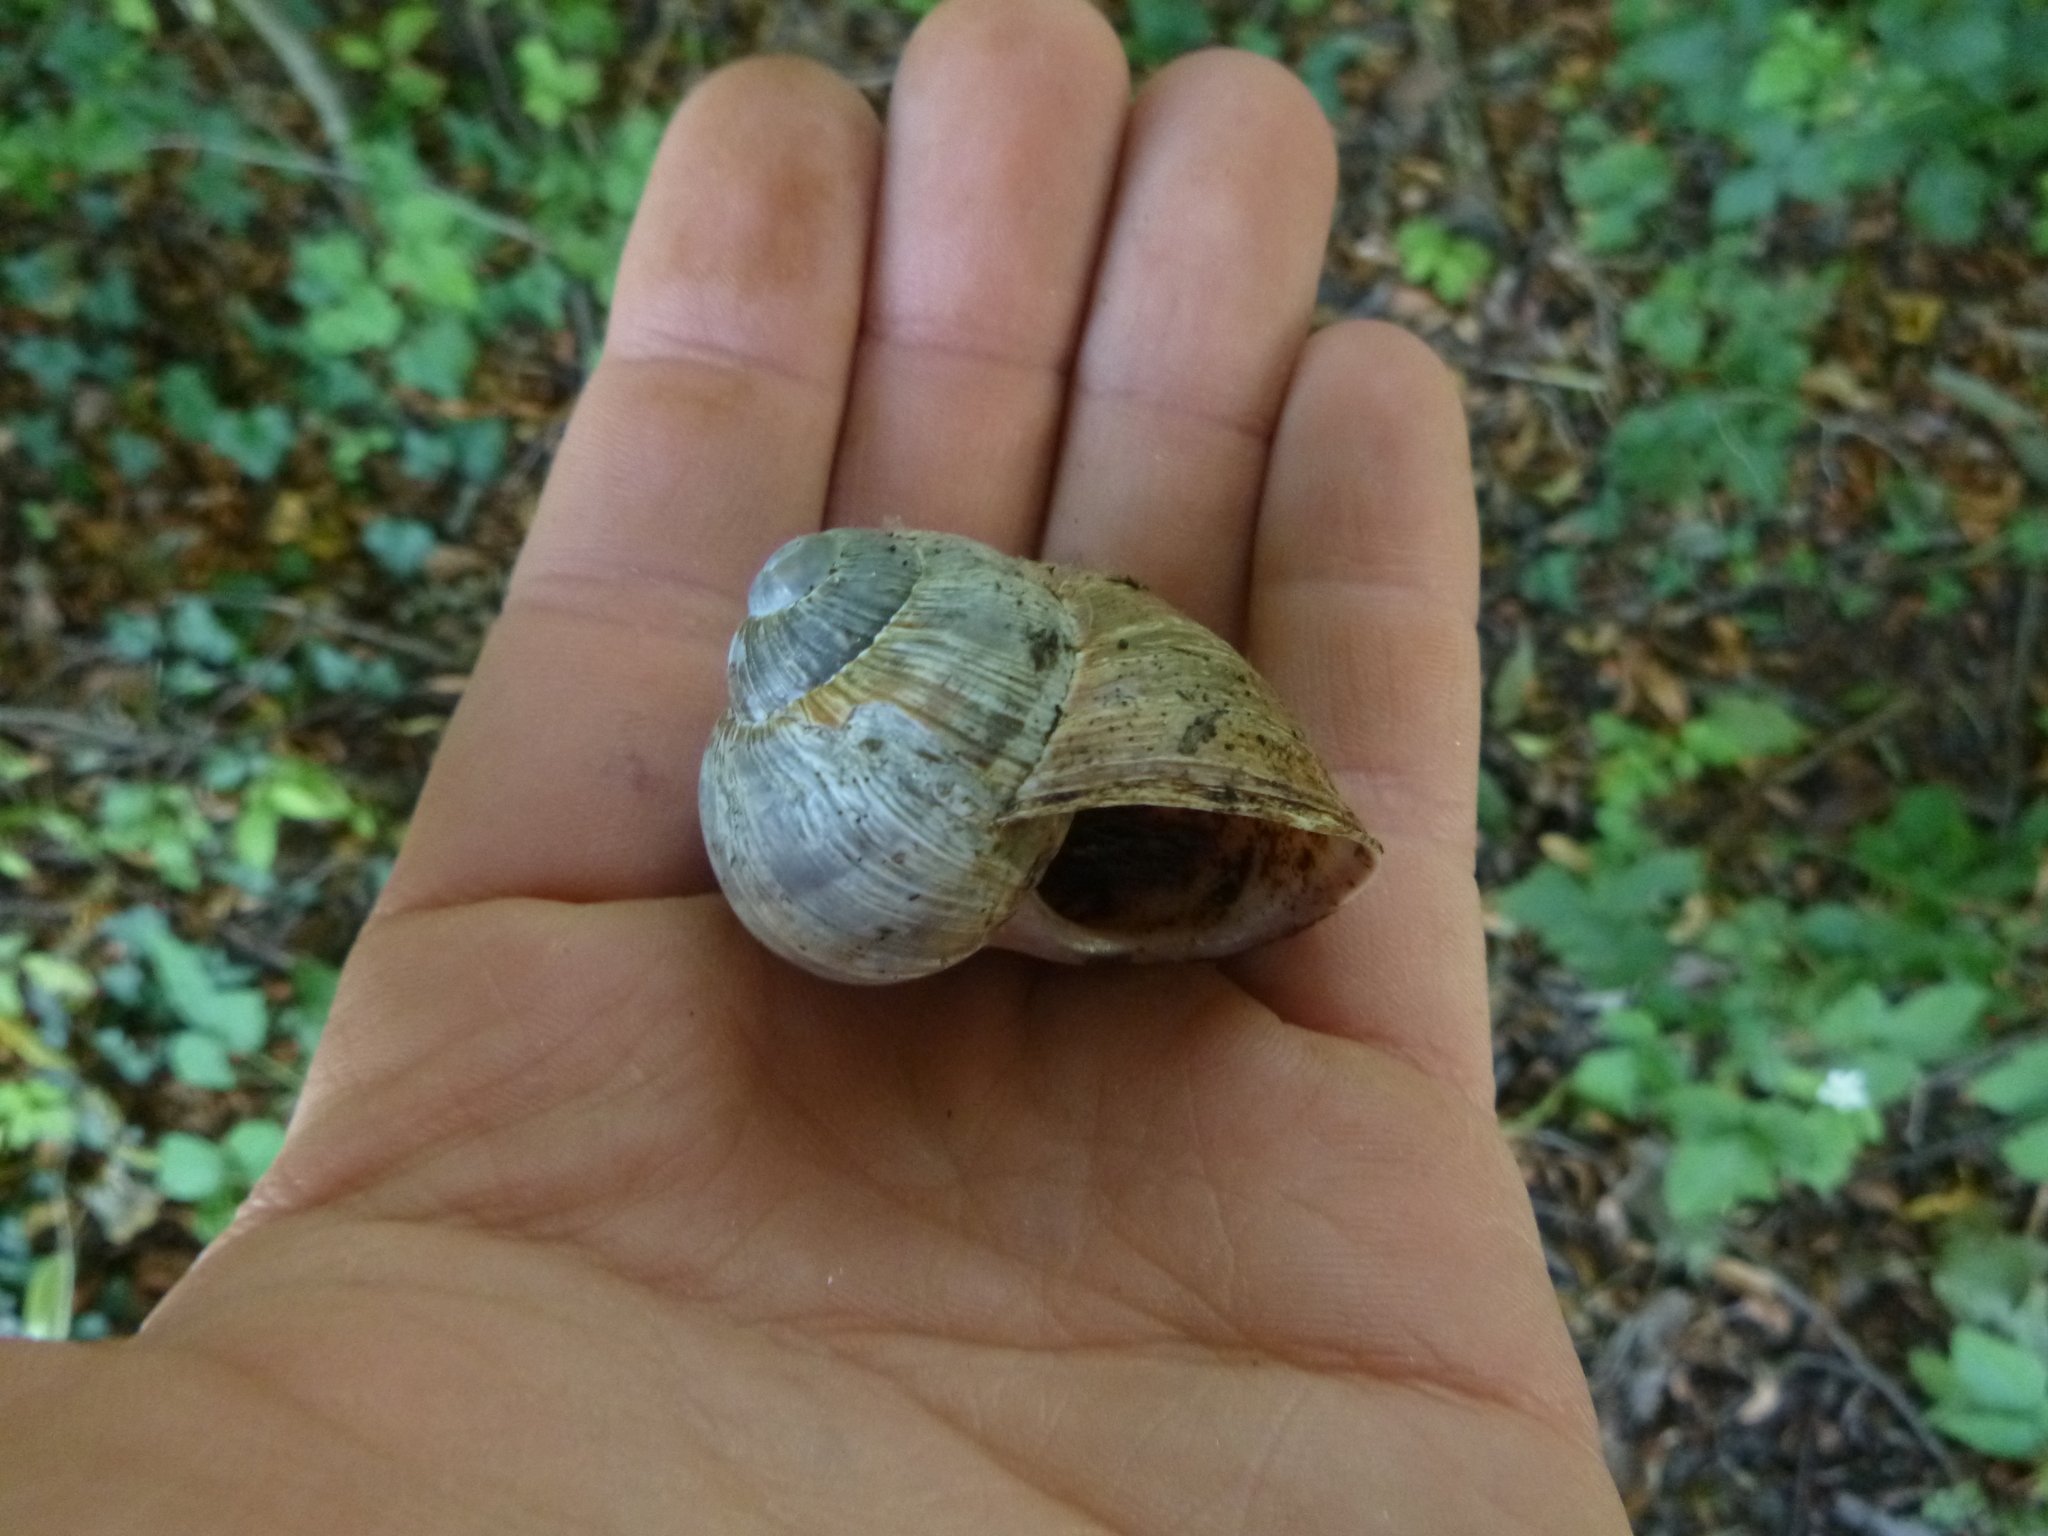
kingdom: Animalia
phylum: Mollusca
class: Gastropoda
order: Stylommatophora
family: Helicidae
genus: Helix
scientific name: Helix pomatia
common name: Roman snail
